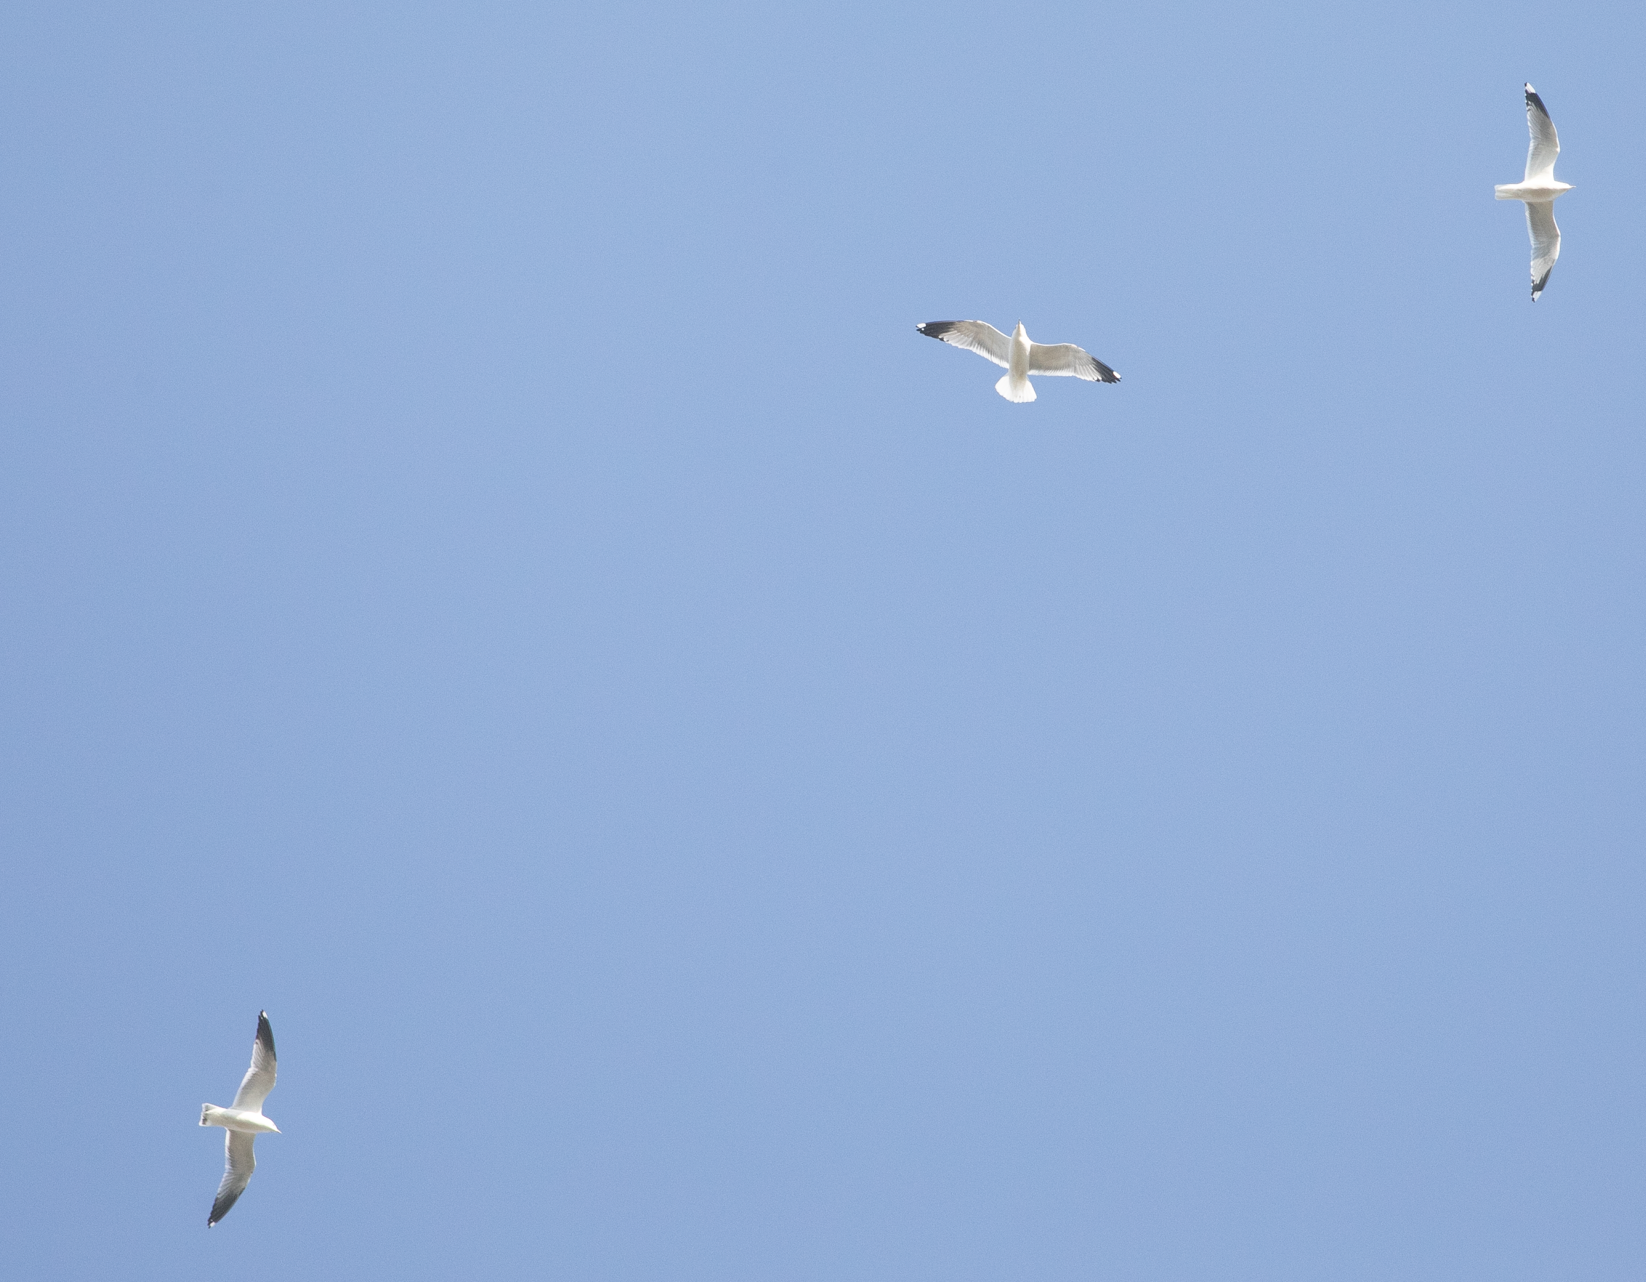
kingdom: Animalia
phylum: Chordata
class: Aves
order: Charadriiformes
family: Laridae
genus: Larus
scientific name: Larus canus
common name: Mew gull
